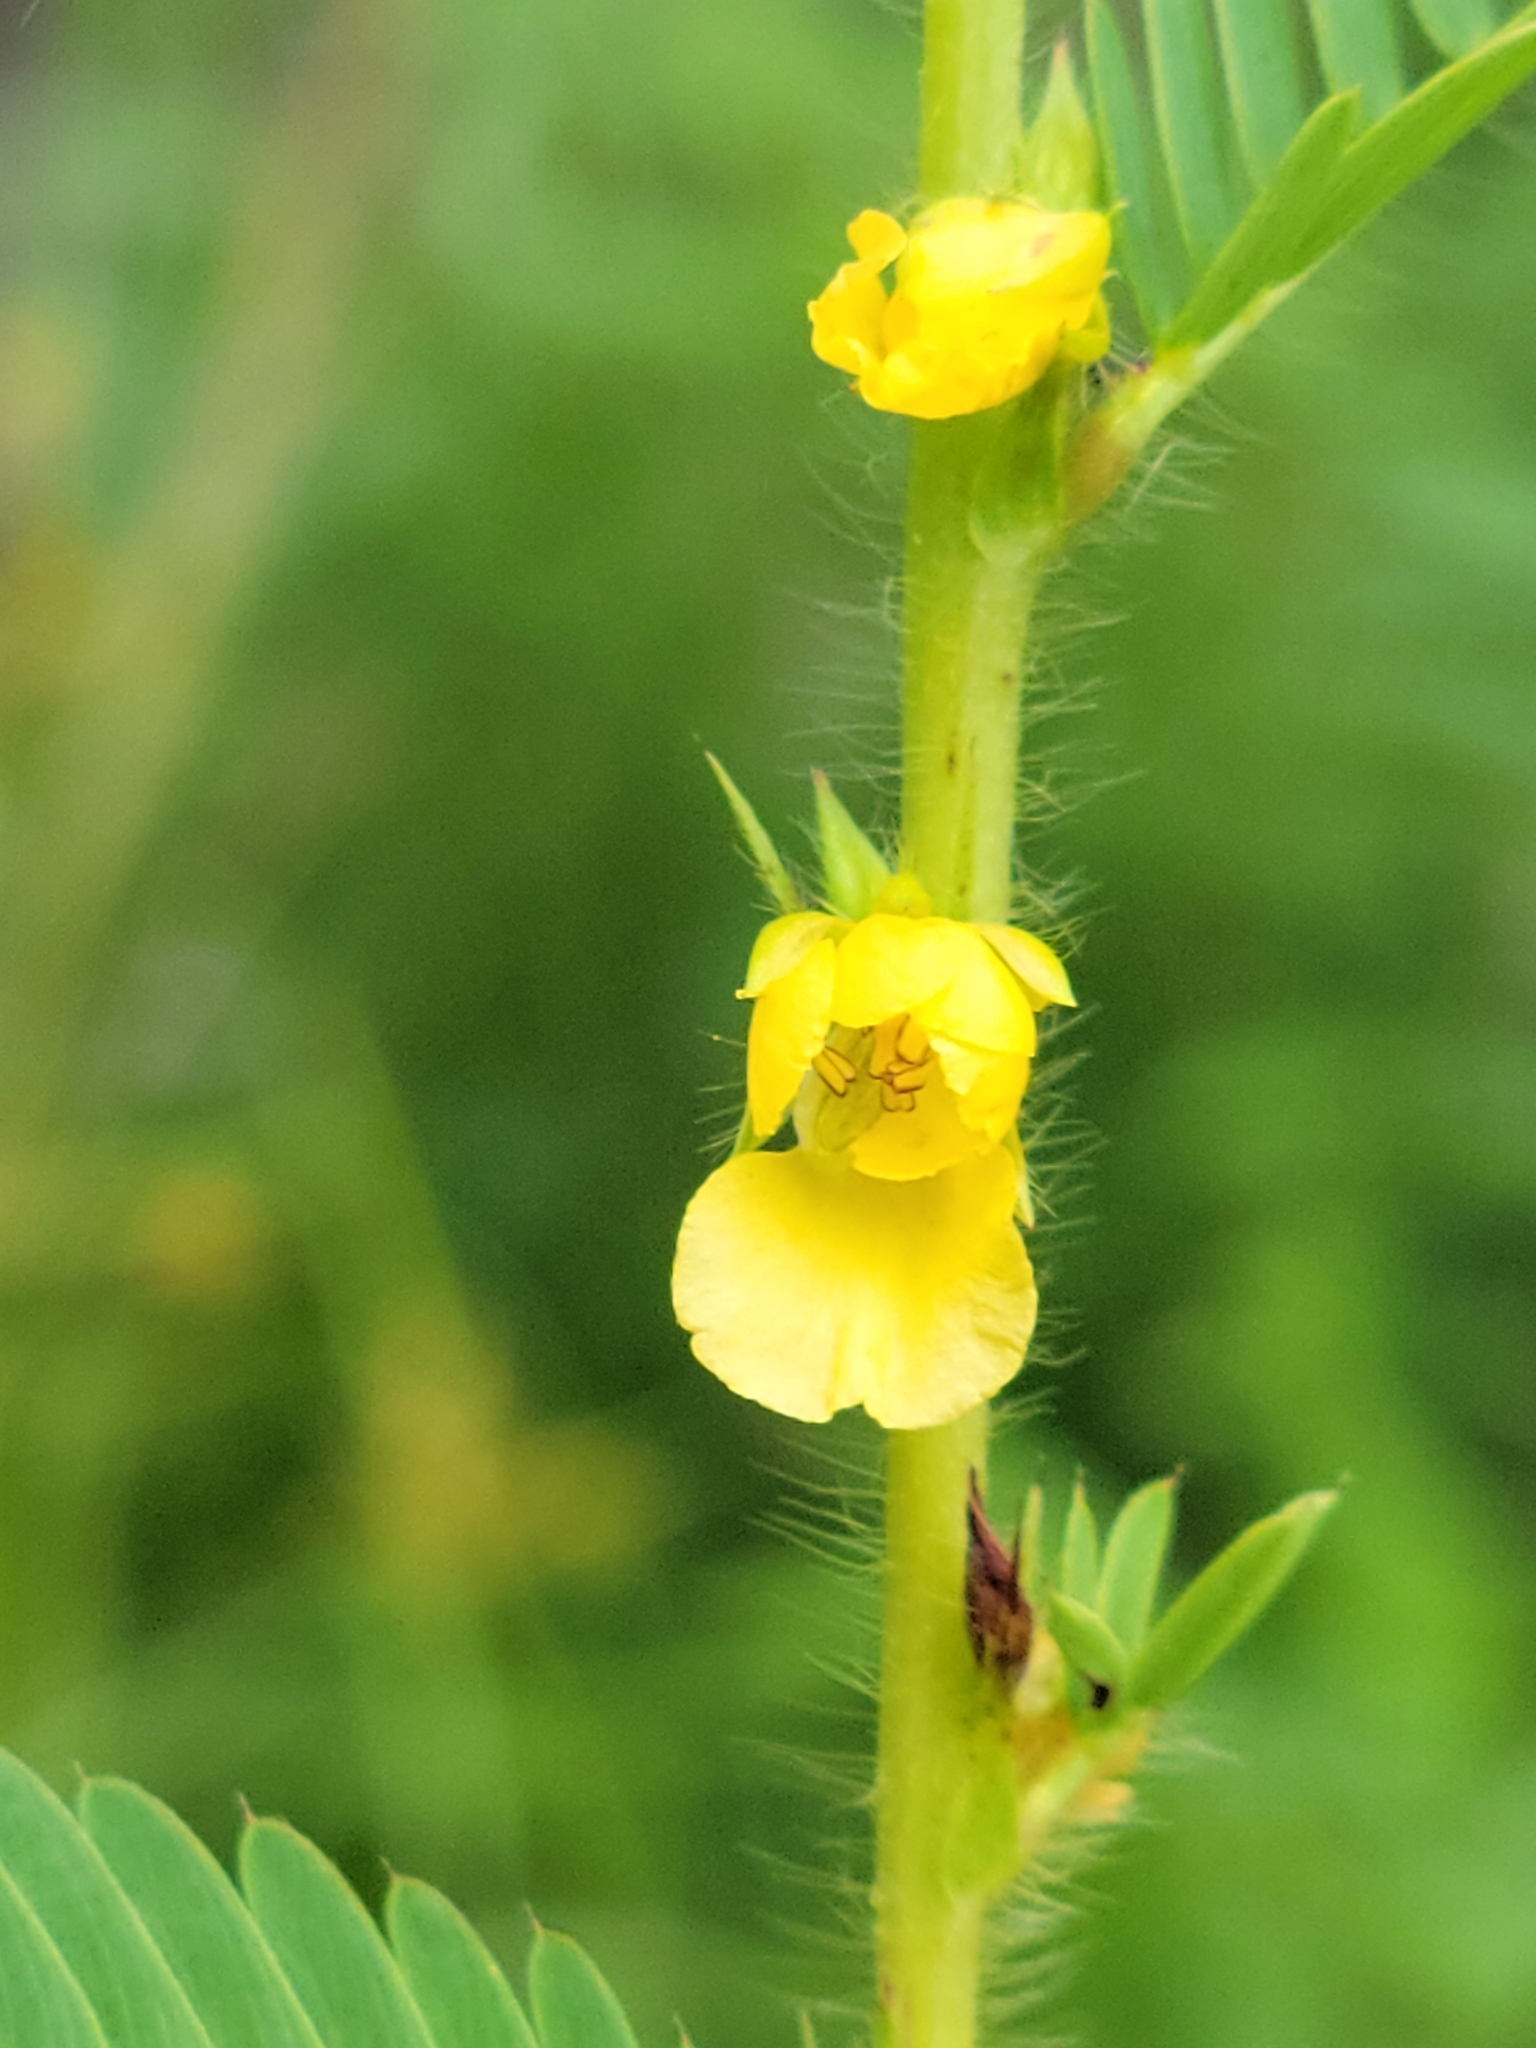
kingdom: Plantae
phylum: Tracheophyta
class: Magnoliopsida
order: Fabales
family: Fabaceae
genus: Chamaecrista
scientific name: Chamaecrista nictitans
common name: Sensitive cassia
